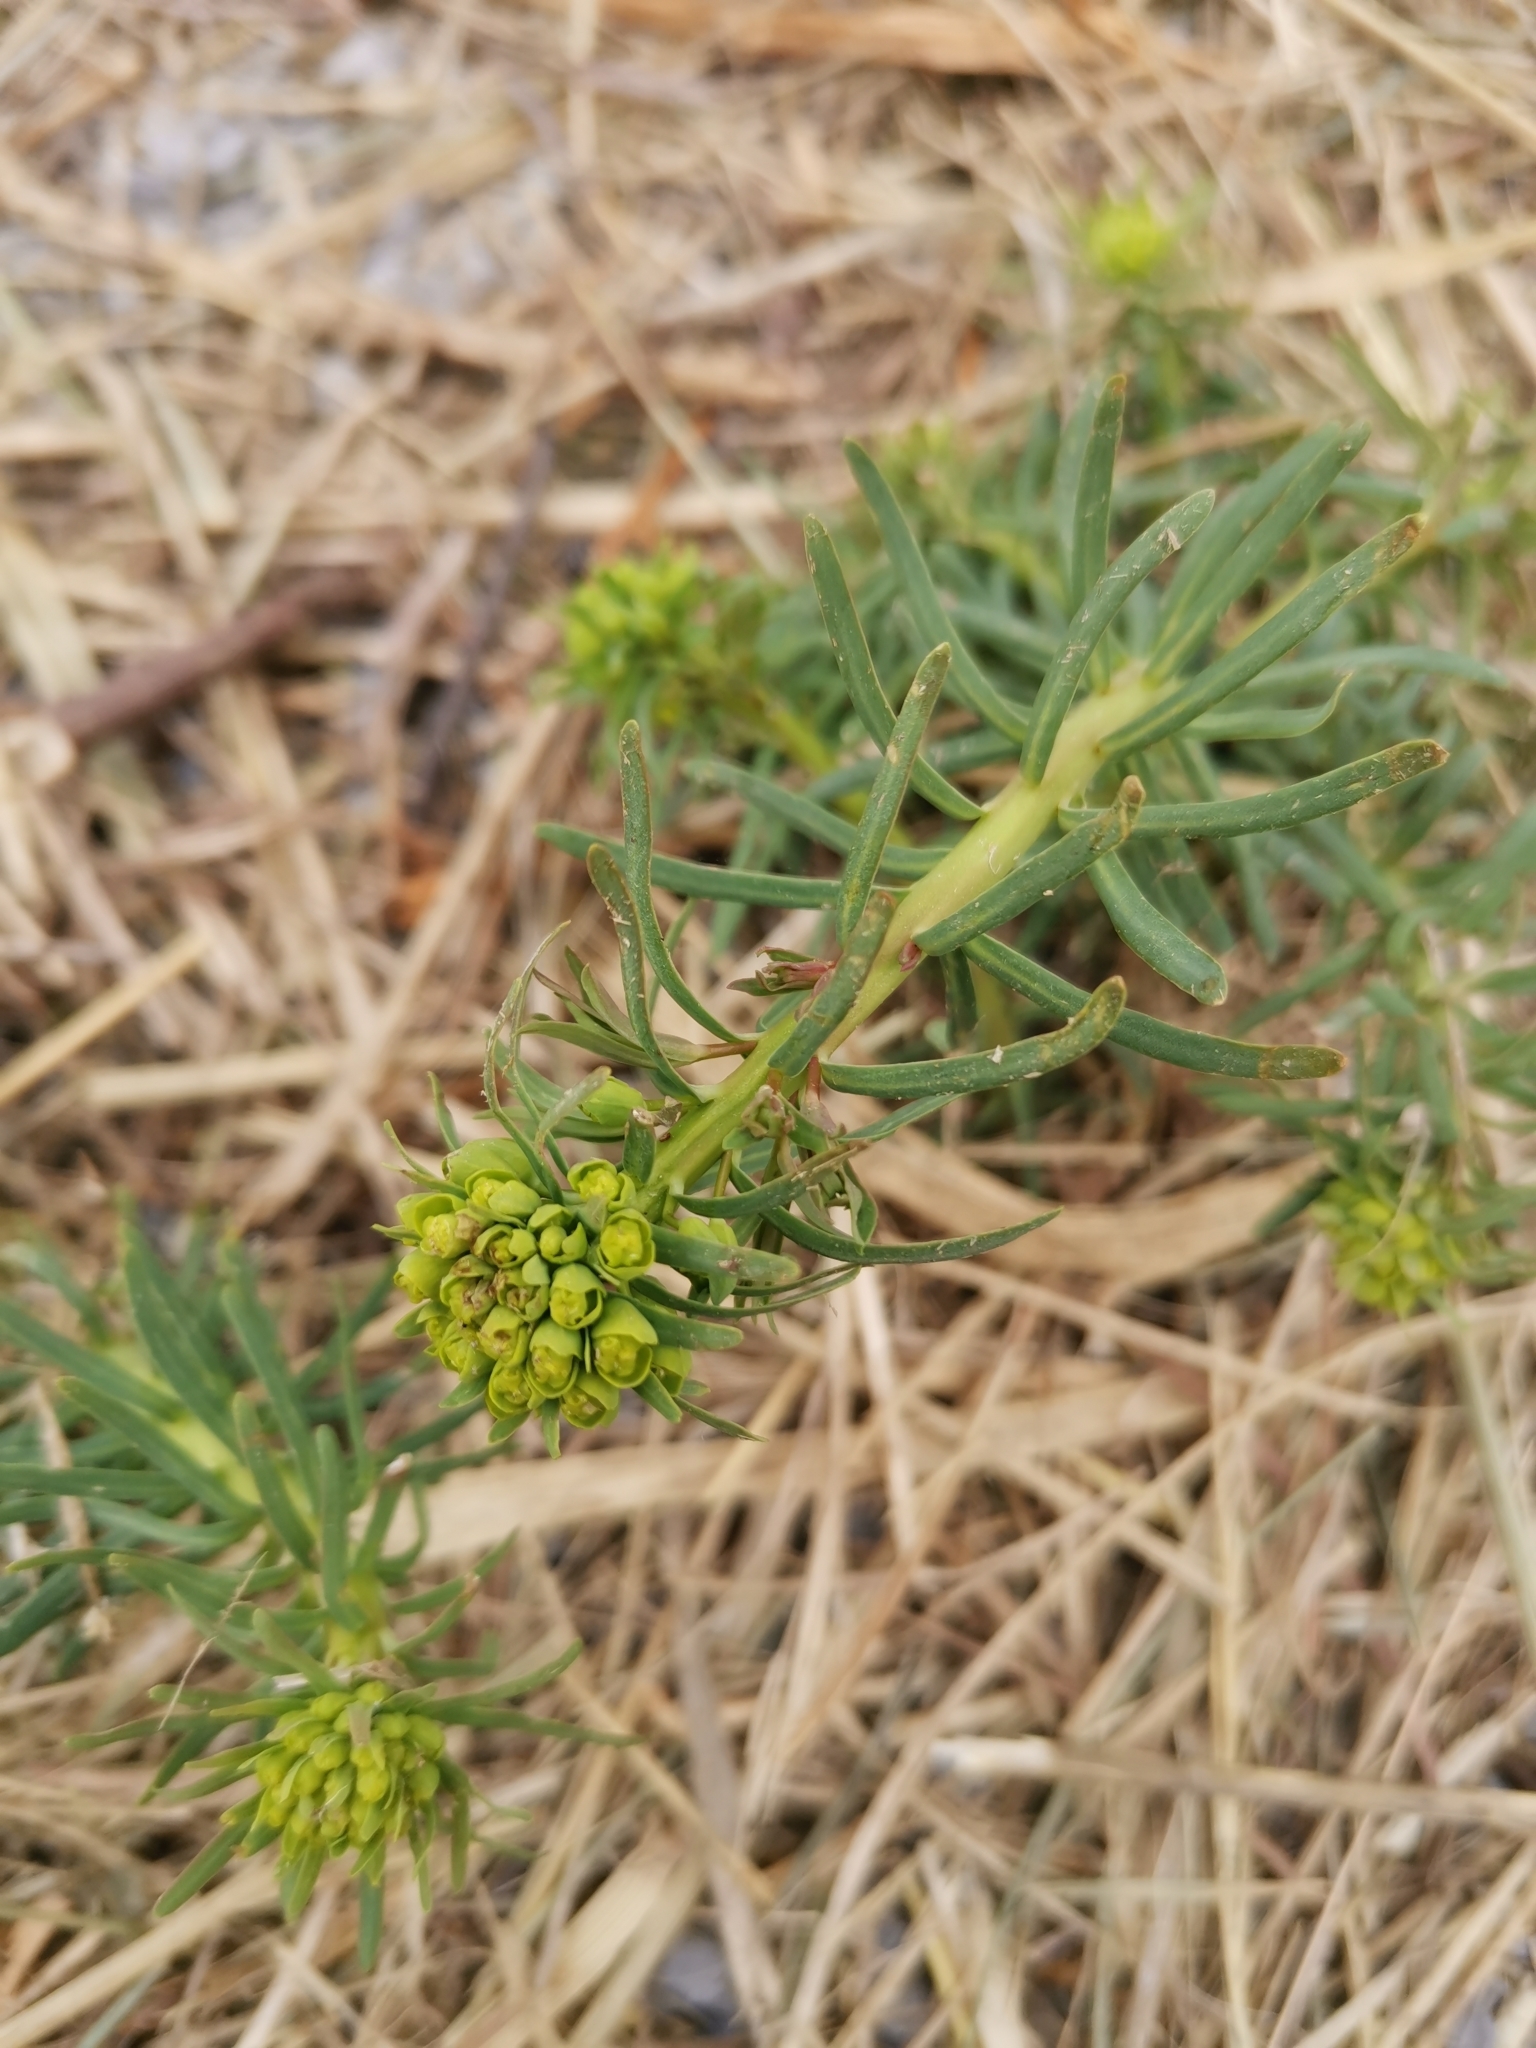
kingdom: Plantae
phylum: Tracheophyta
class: Magnoliopsida
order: Malpighiales
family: Euphorbiaceae
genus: Euphorbia
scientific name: Euphorbia cyparissias
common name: Cypress spurge
